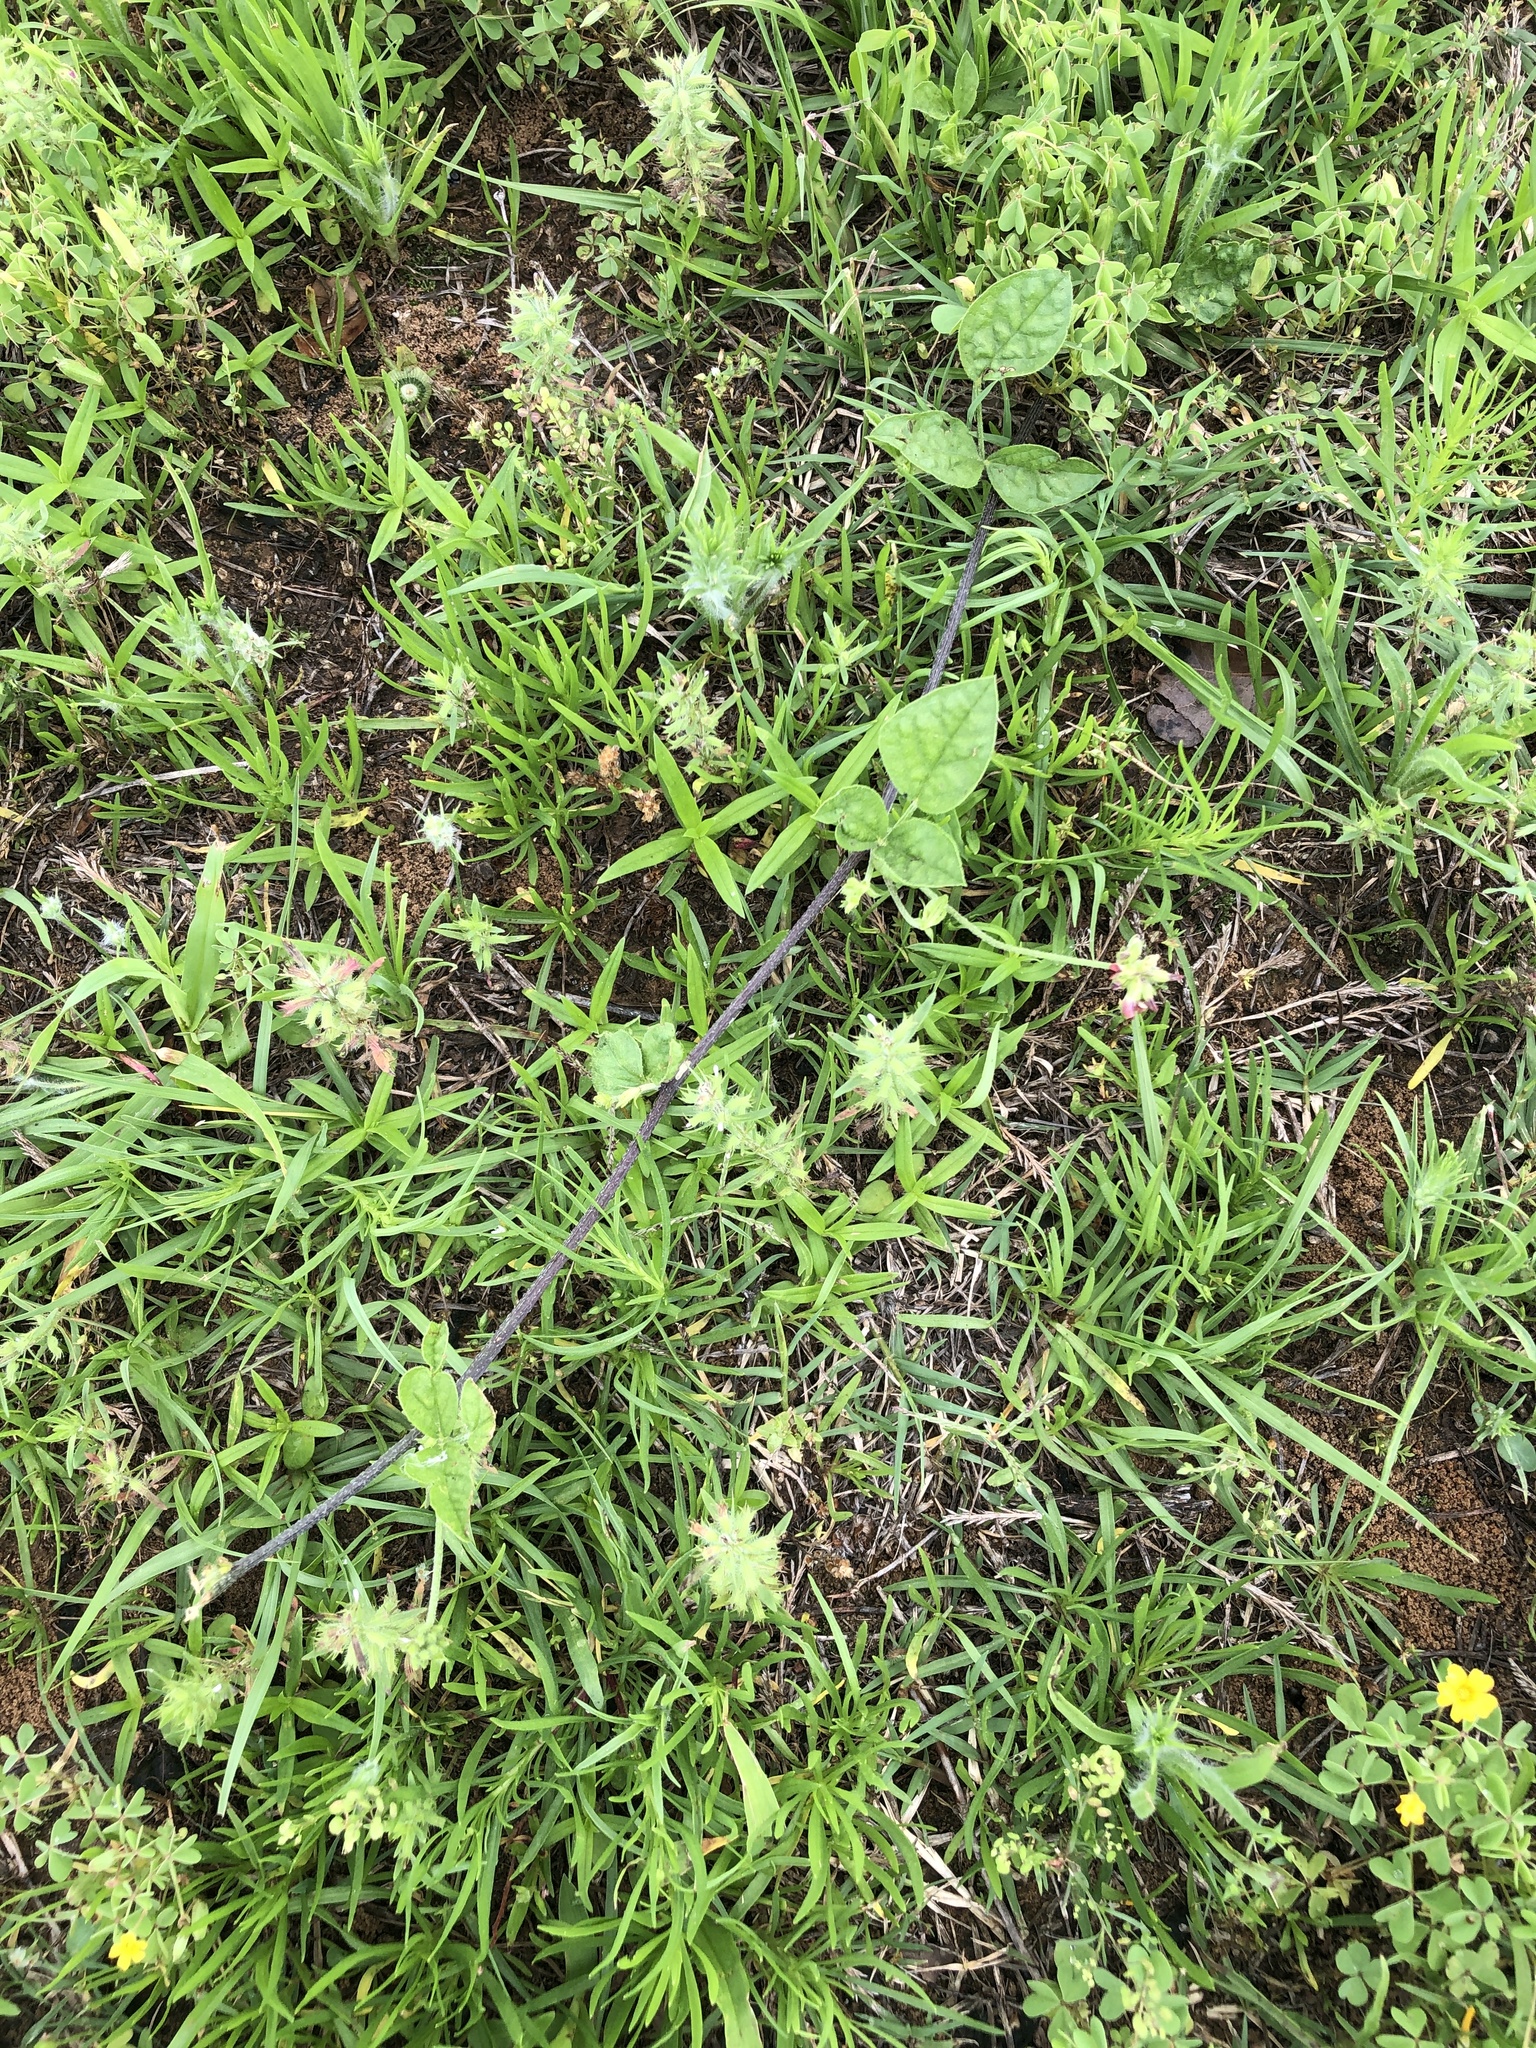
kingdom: Plantae
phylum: Tracheophyta
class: Magnoliopsida
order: Fabales
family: Fabaceae
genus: Pediomelum
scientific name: Pediomelum rhombifolium
